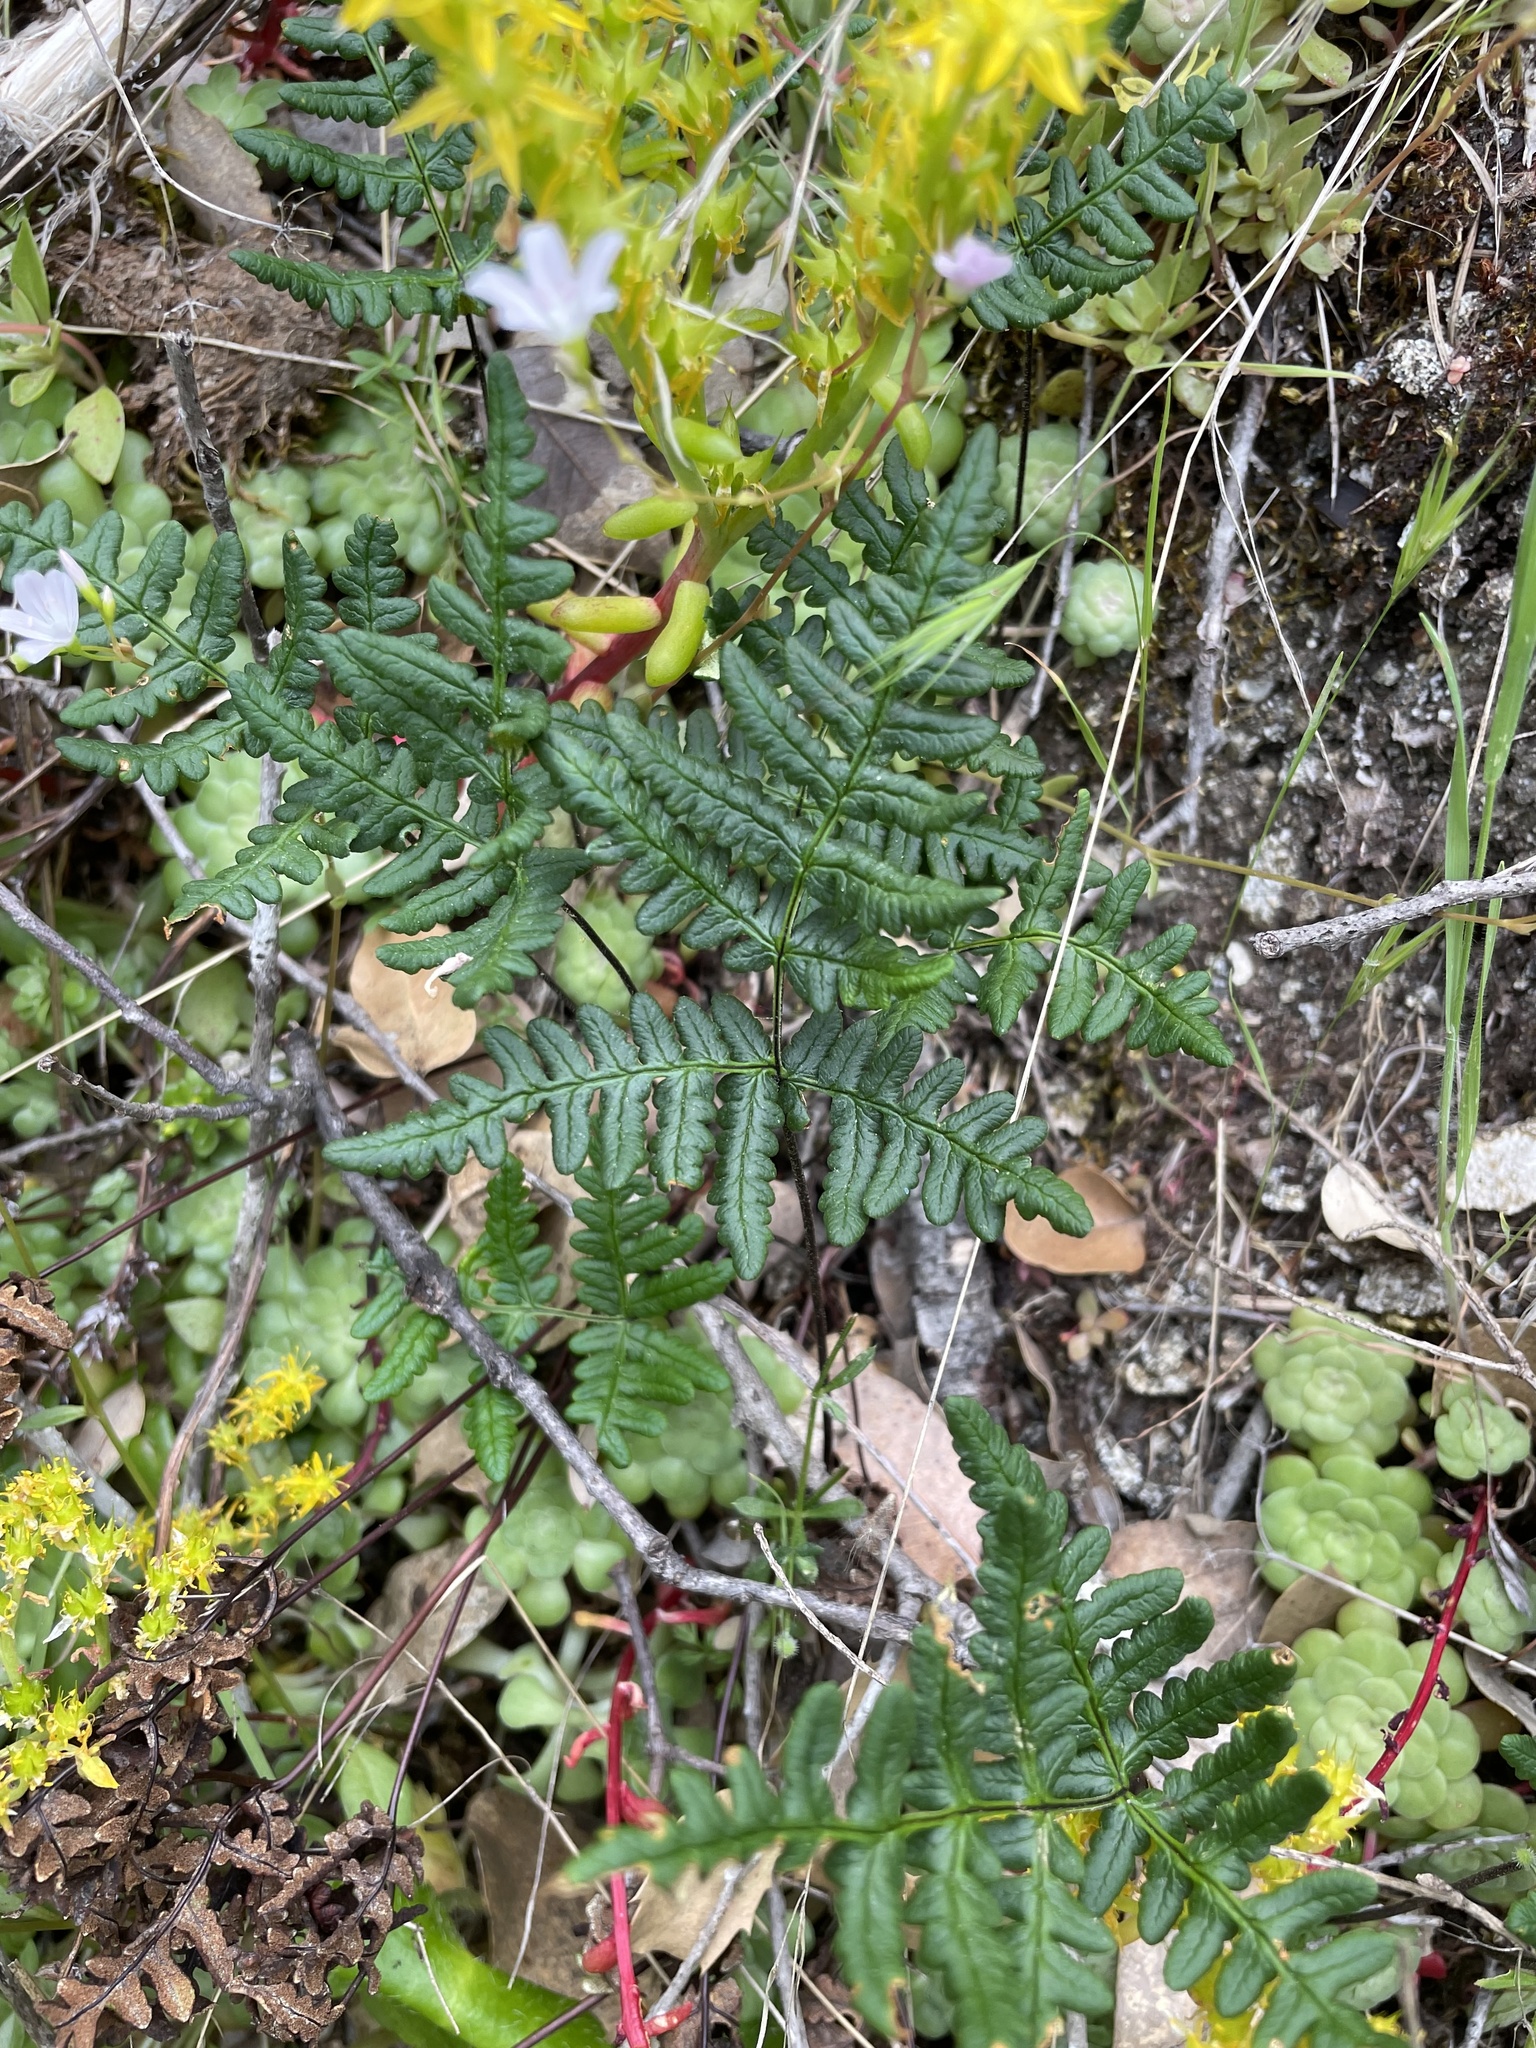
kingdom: Plantae
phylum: Tracheophyta
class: Polypodiopsida
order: Polypodiales
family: Pteridaceae
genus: Pentagramma
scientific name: Pentagramma triangularis
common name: Gold fern
